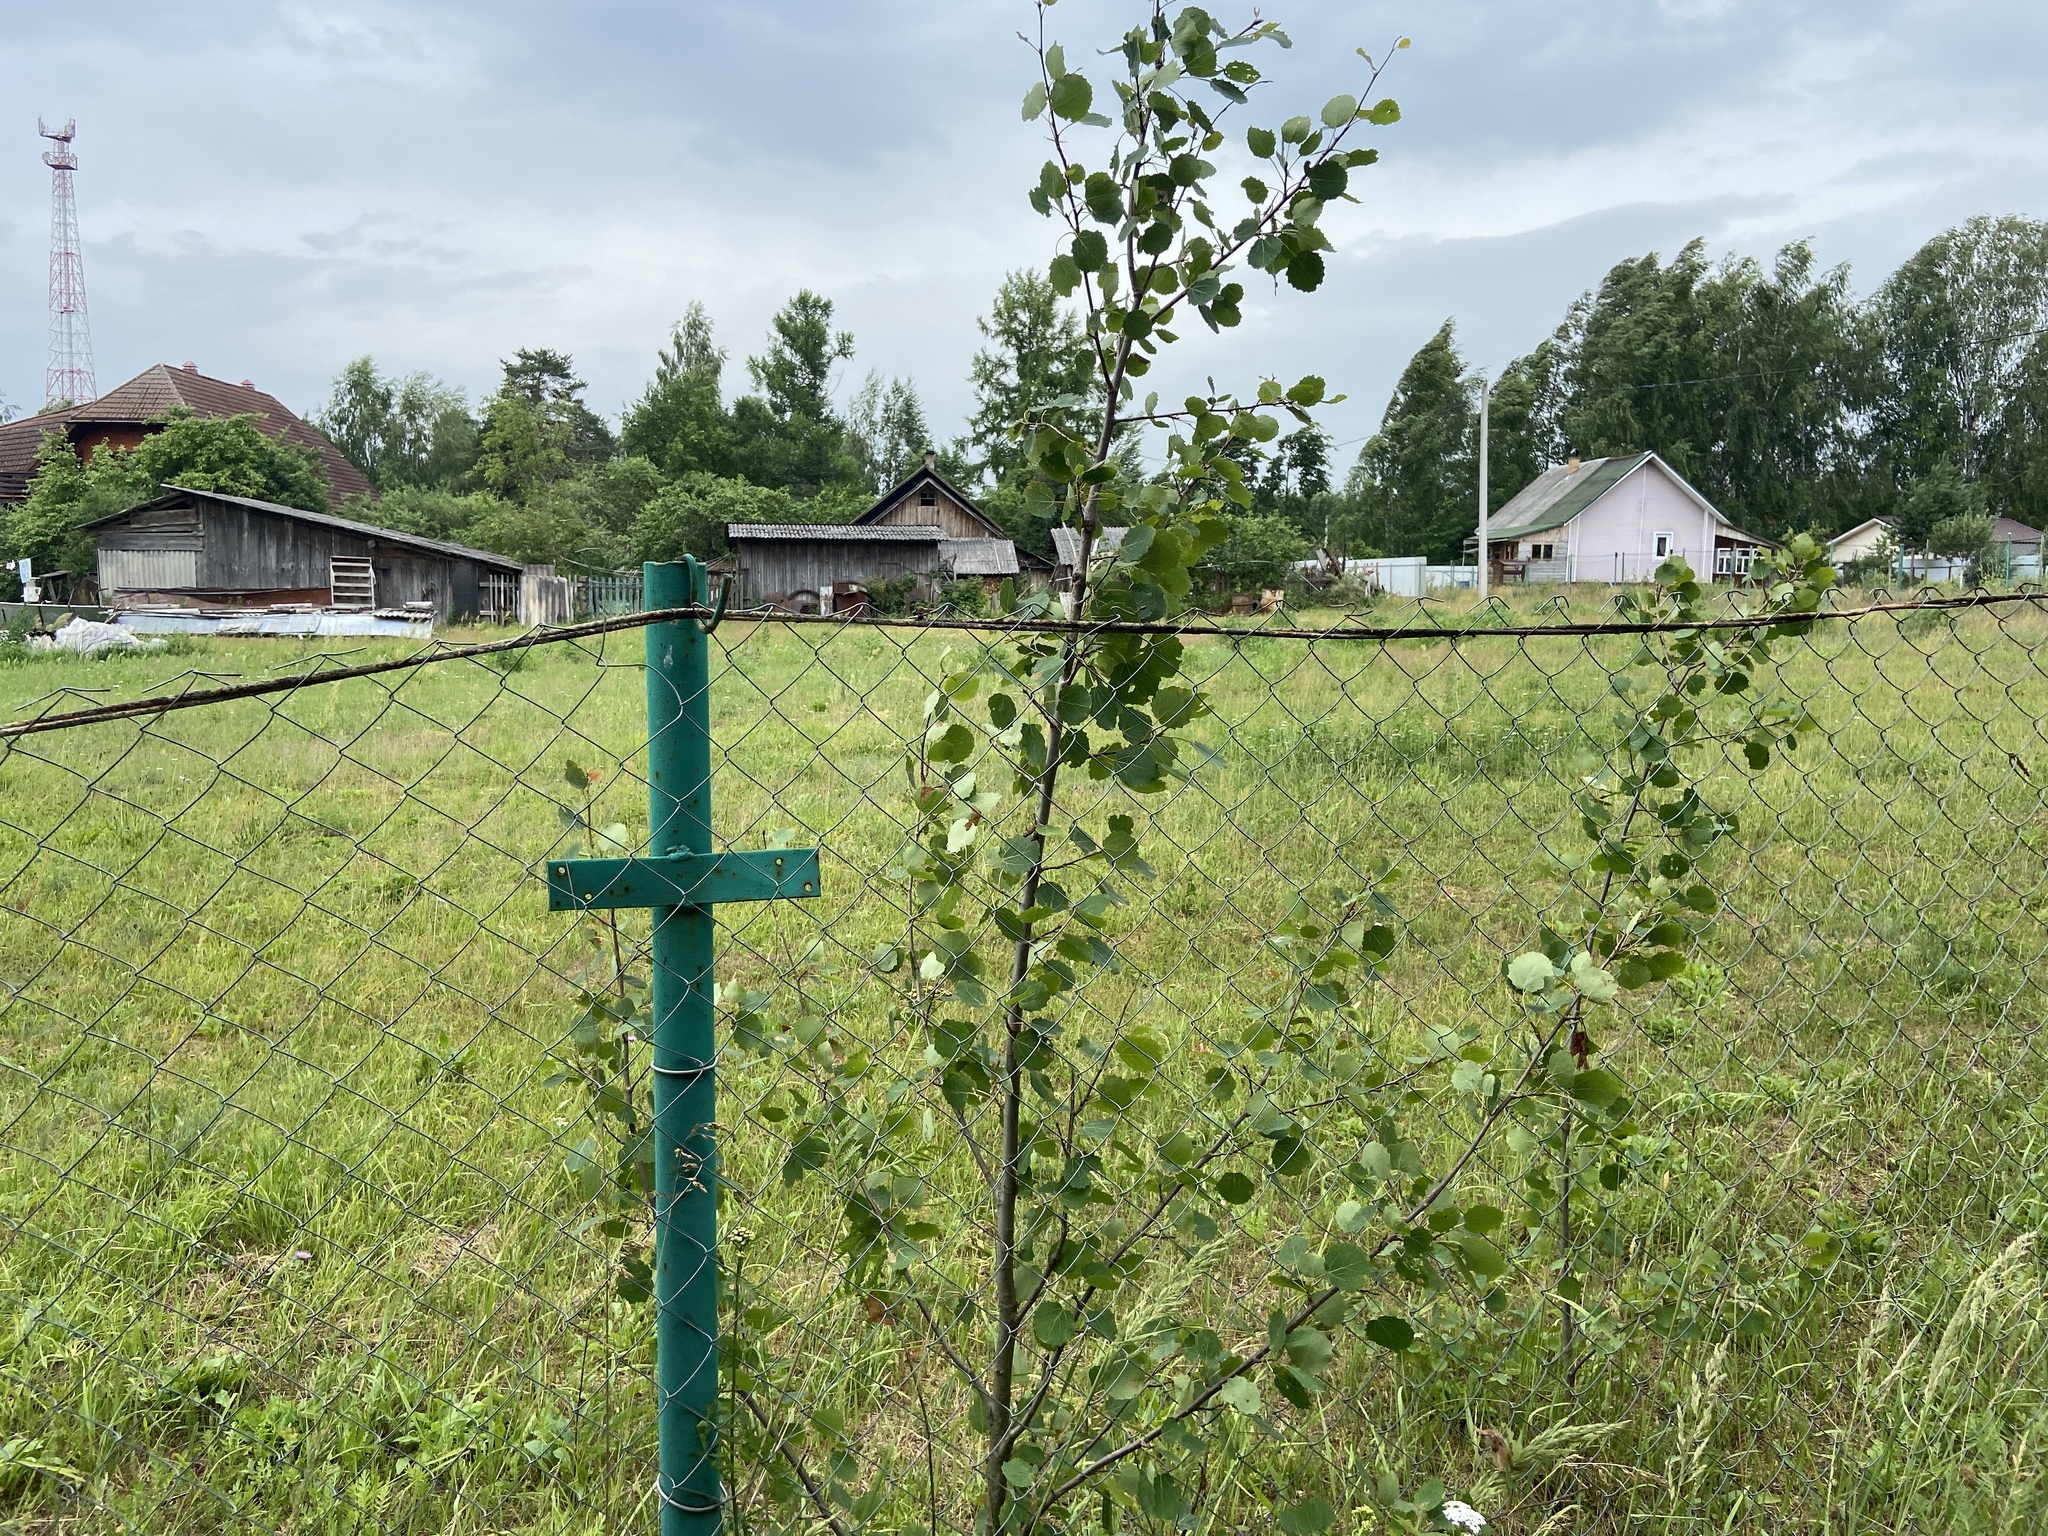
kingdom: Plantae
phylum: Tracheophyta
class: Magnoliopsida
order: Malpighiales
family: Salicaceae
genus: Populus
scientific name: Populus tremula
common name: European aspen
